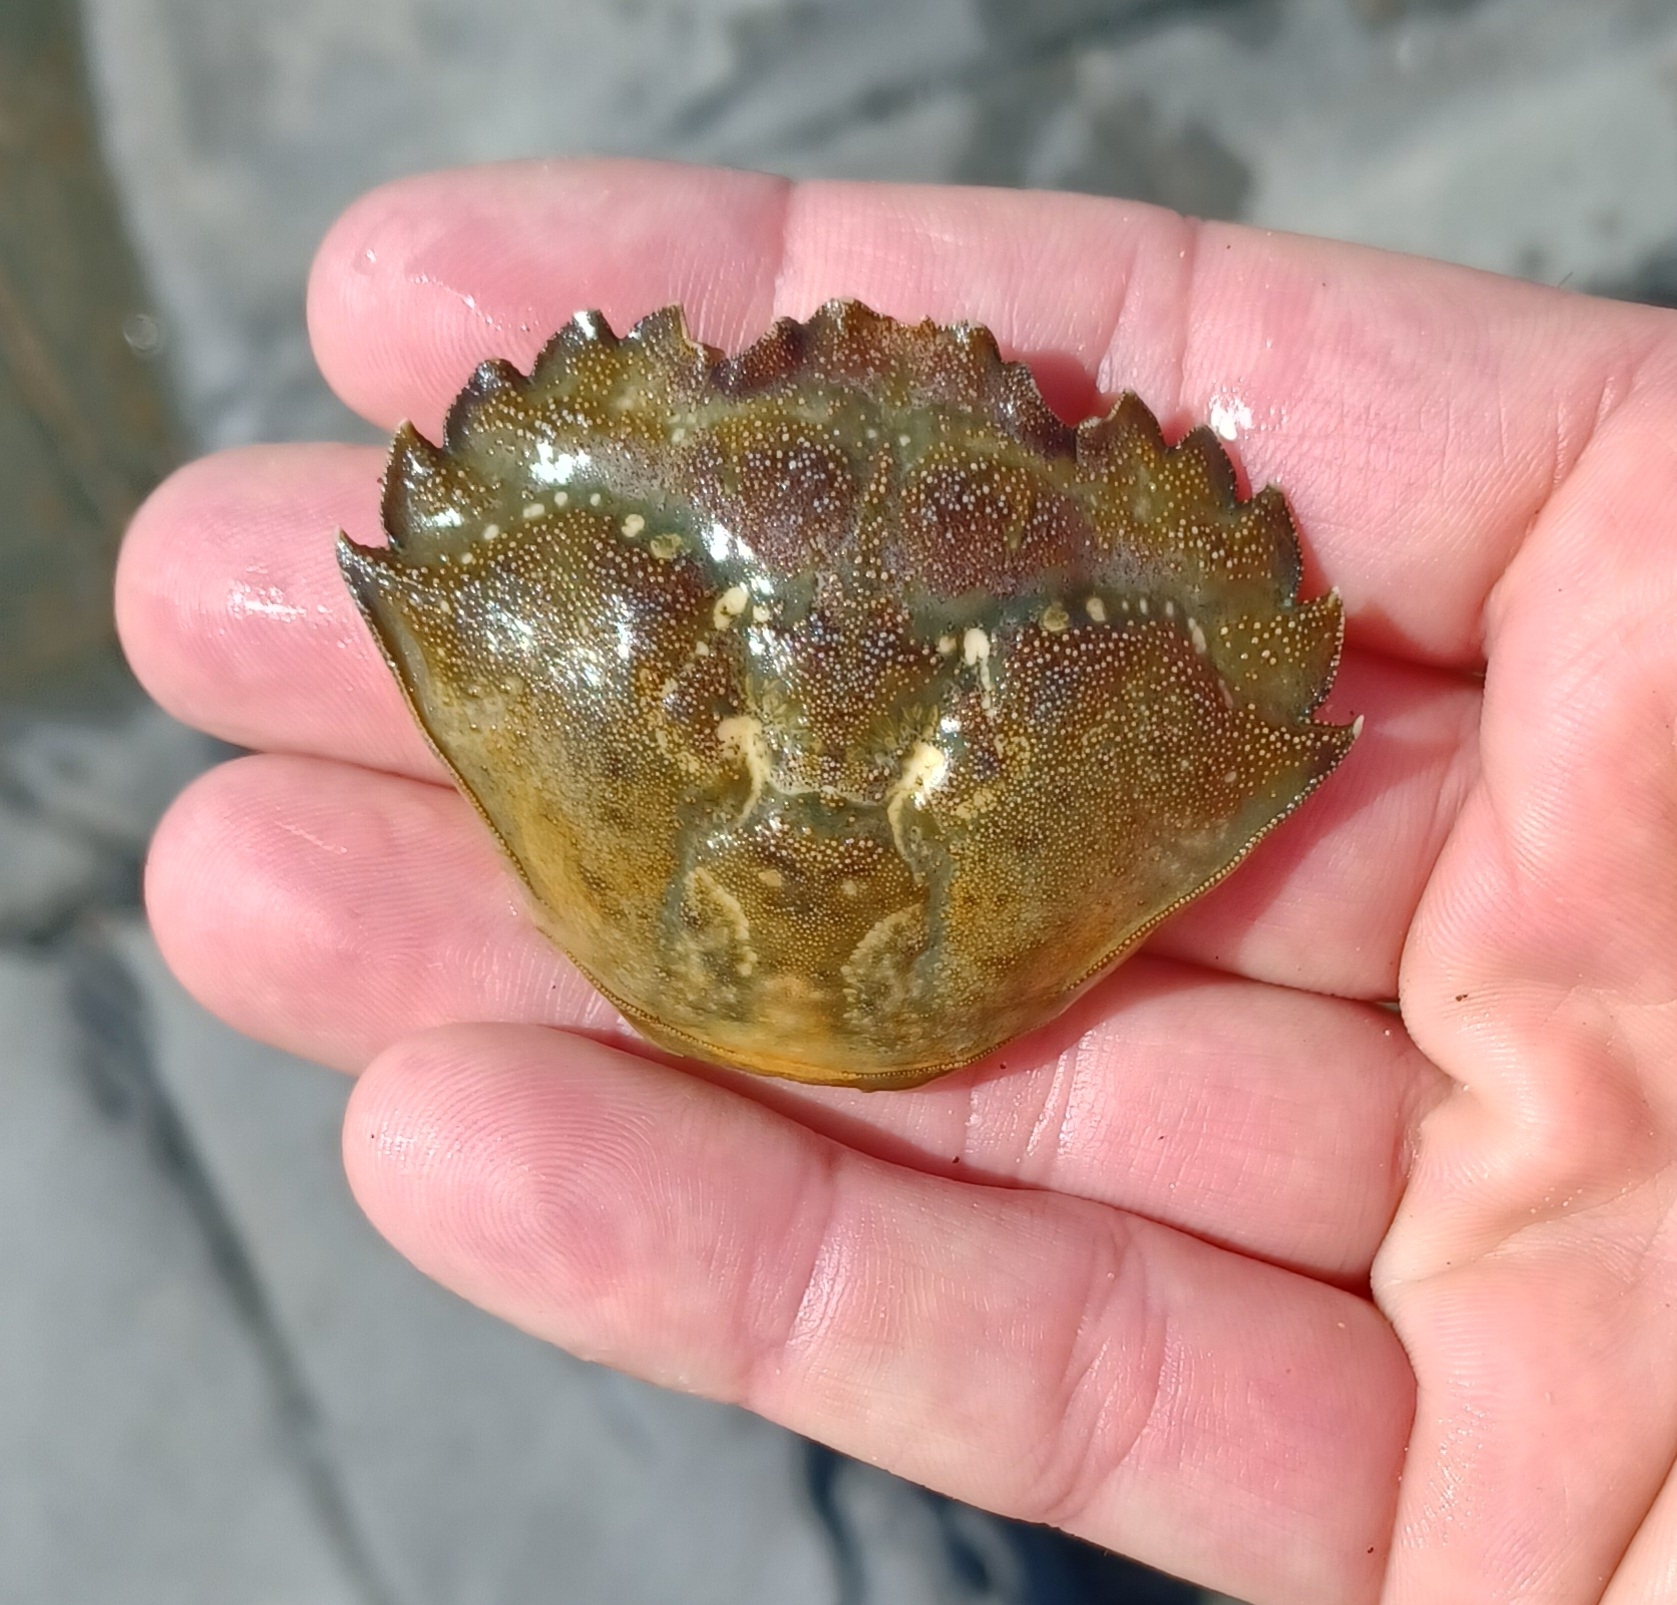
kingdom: Animalia
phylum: Arthropoda
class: Malacostraca
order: Decapoda
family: Carcinidae
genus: Carcinus
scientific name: Carcinus maenas
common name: European green crab
